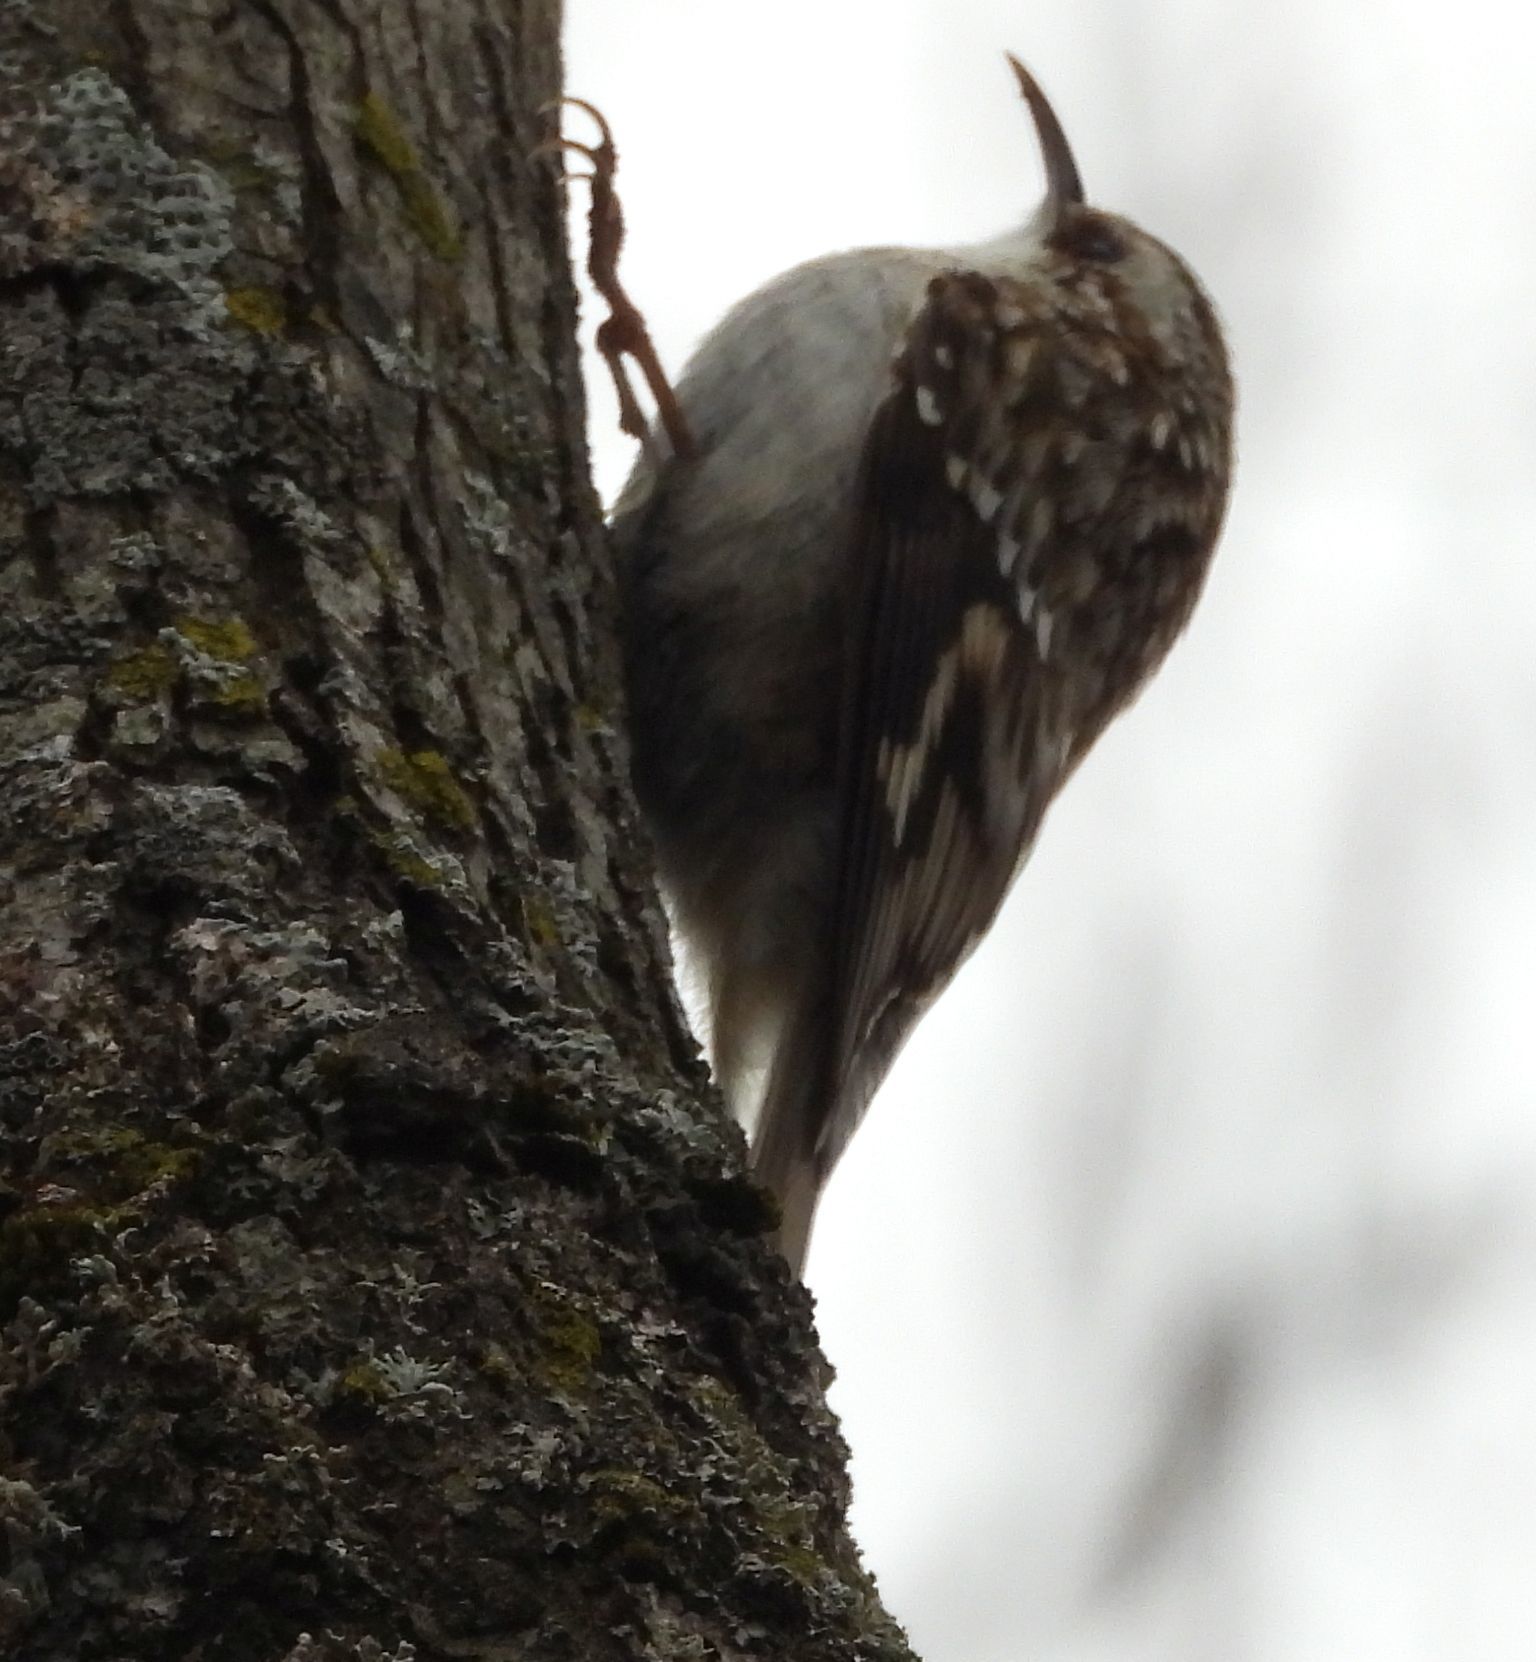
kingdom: Animalia
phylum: Chordata
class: Aves
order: Passeriformes
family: Certhiidae
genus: Certhia
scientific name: Certhia americana
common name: Brown creeper
